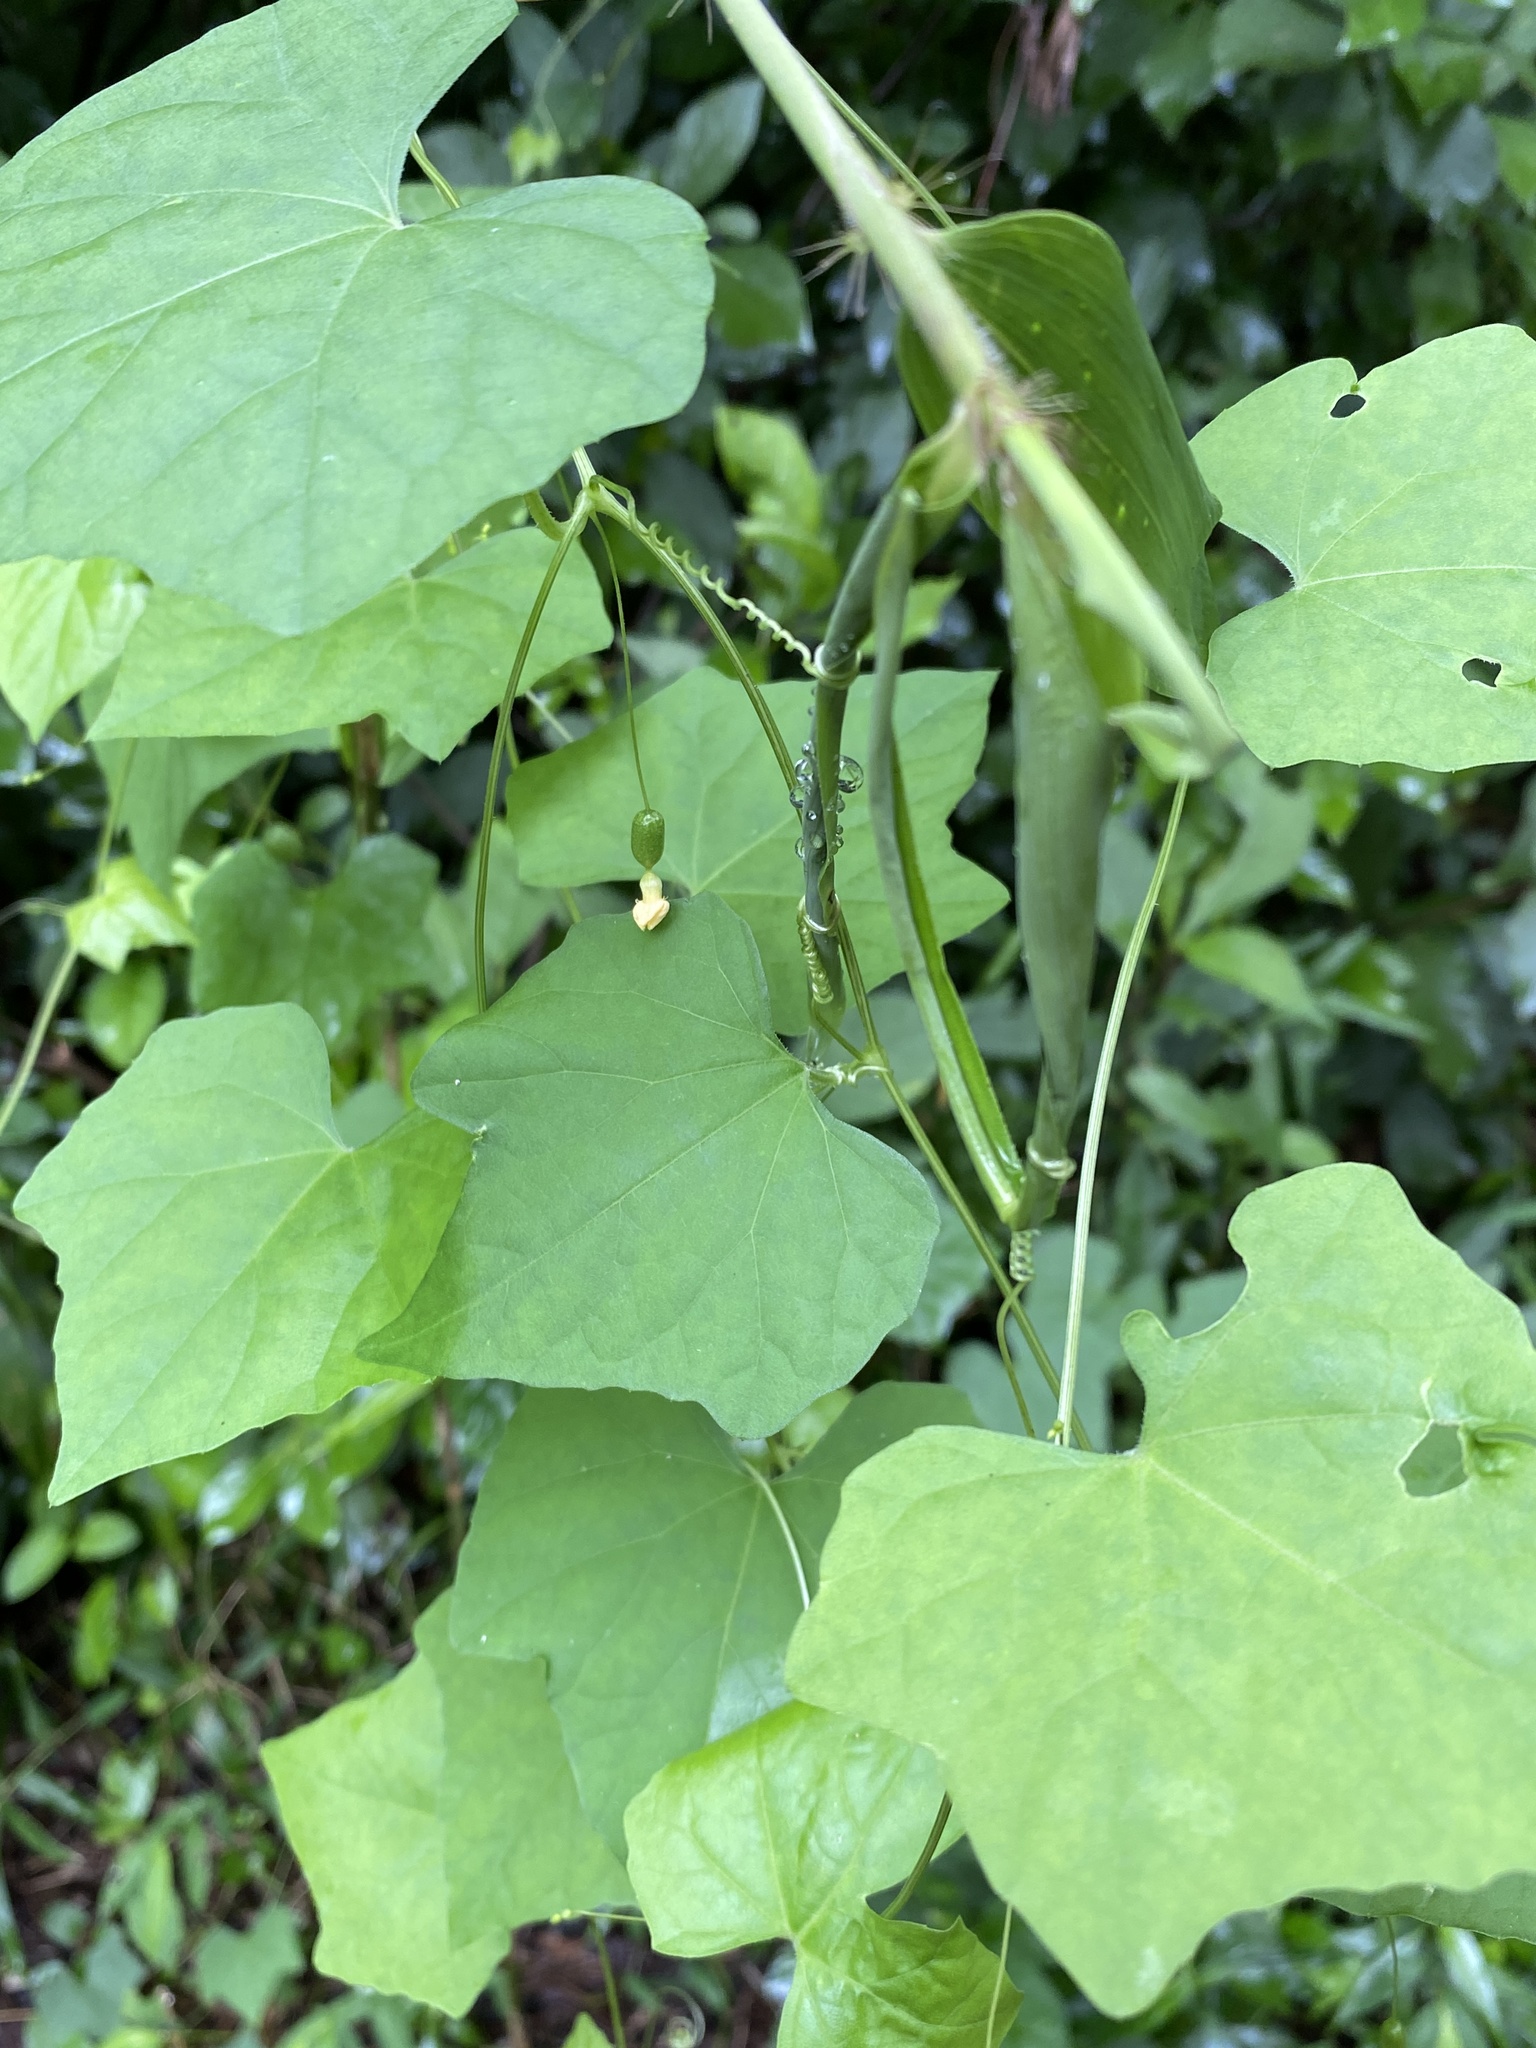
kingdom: Plantae
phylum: Tracheophyta
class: Magnoliopsida
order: Cucurbitales
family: Cucurbitaceae
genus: Melothria
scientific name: Melothria pendula
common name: Creeping-cucumber
